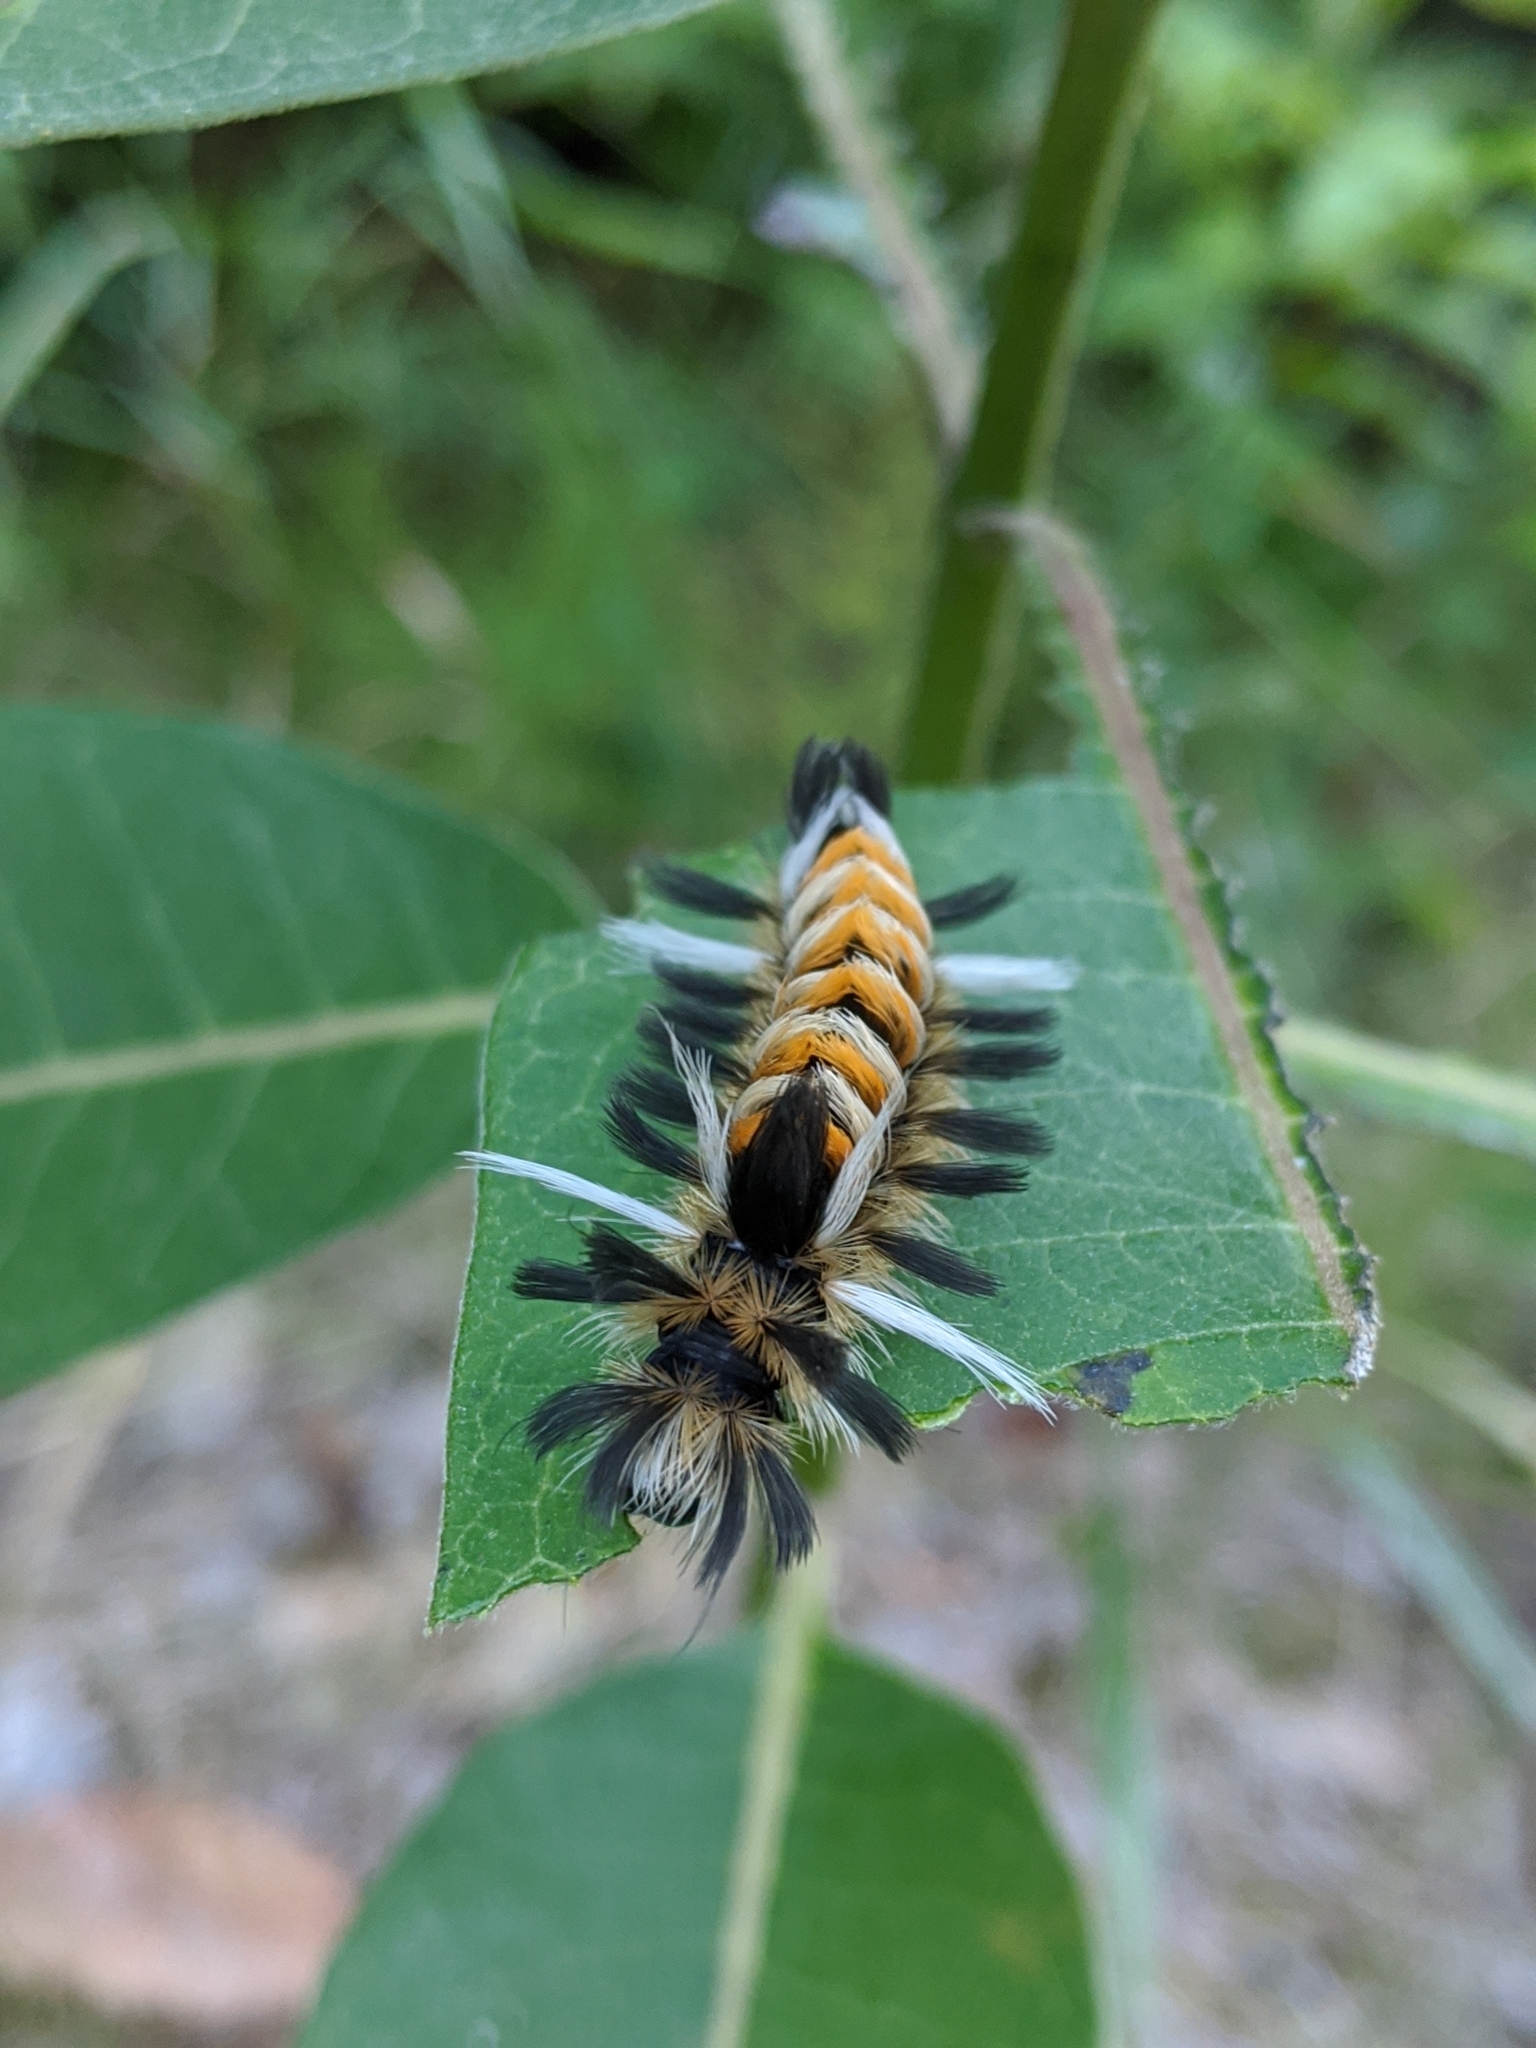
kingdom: Animalia
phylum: Arthropoda
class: Insecta
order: Lepidoptera
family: Erebidae
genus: Euchaetes
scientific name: Euchaetes egle
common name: Milkweed tussock moth
